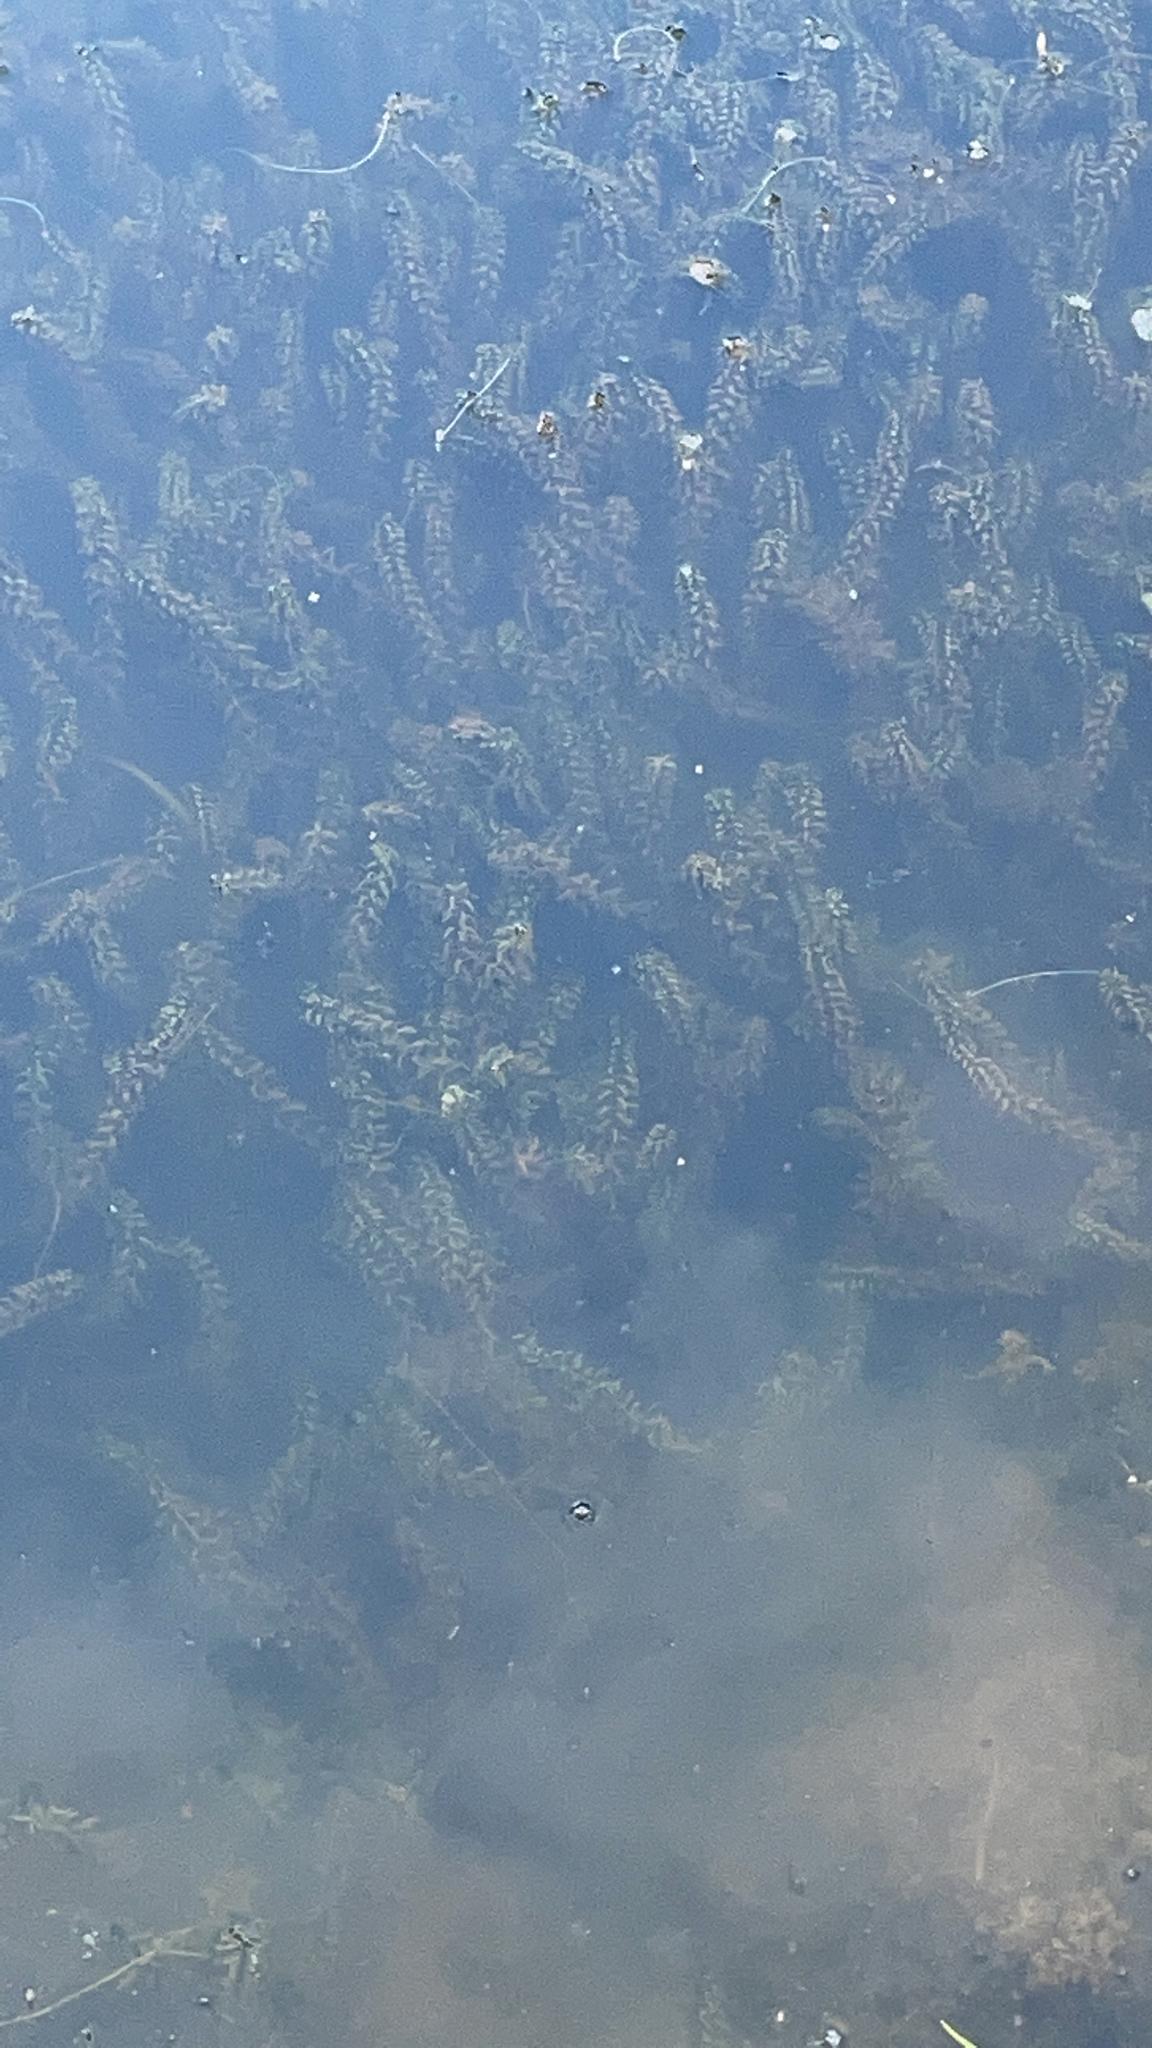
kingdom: Plantae
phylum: Tracheophyta
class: Liliopsida
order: Alismatales
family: Hydrocharitaceae
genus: Elodea
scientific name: Elodea canadensis
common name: Canadian waterweed
